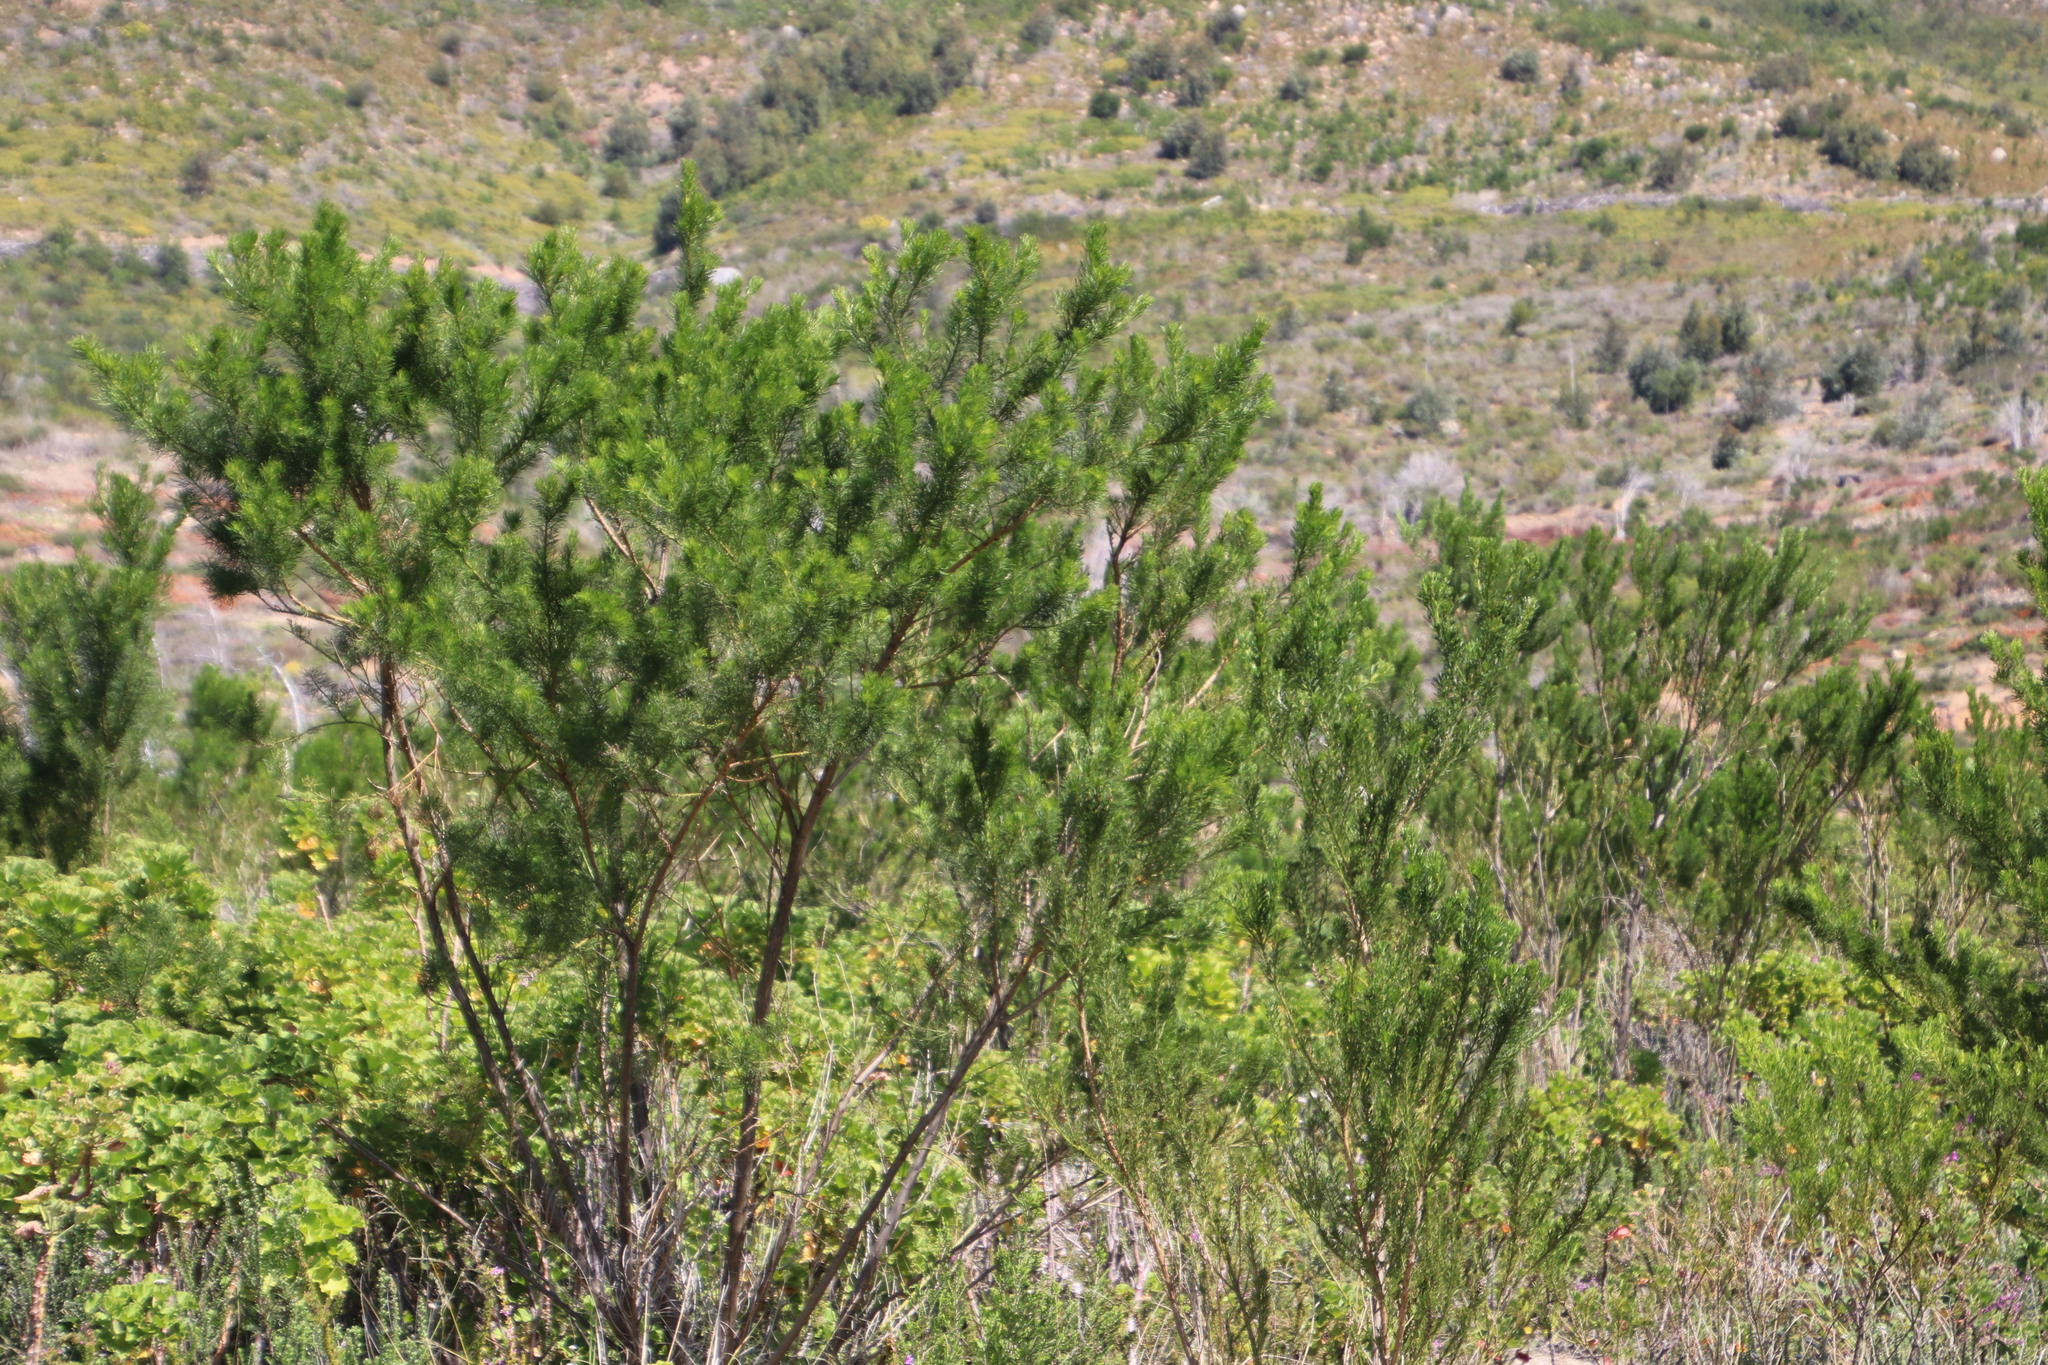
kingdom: Plantae
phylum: Tracheophyta
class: Magnoliopsida
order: Fabales
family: Fabaceae
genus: Psoralea
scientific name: Psoralea pinnata
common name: African scurfpea
